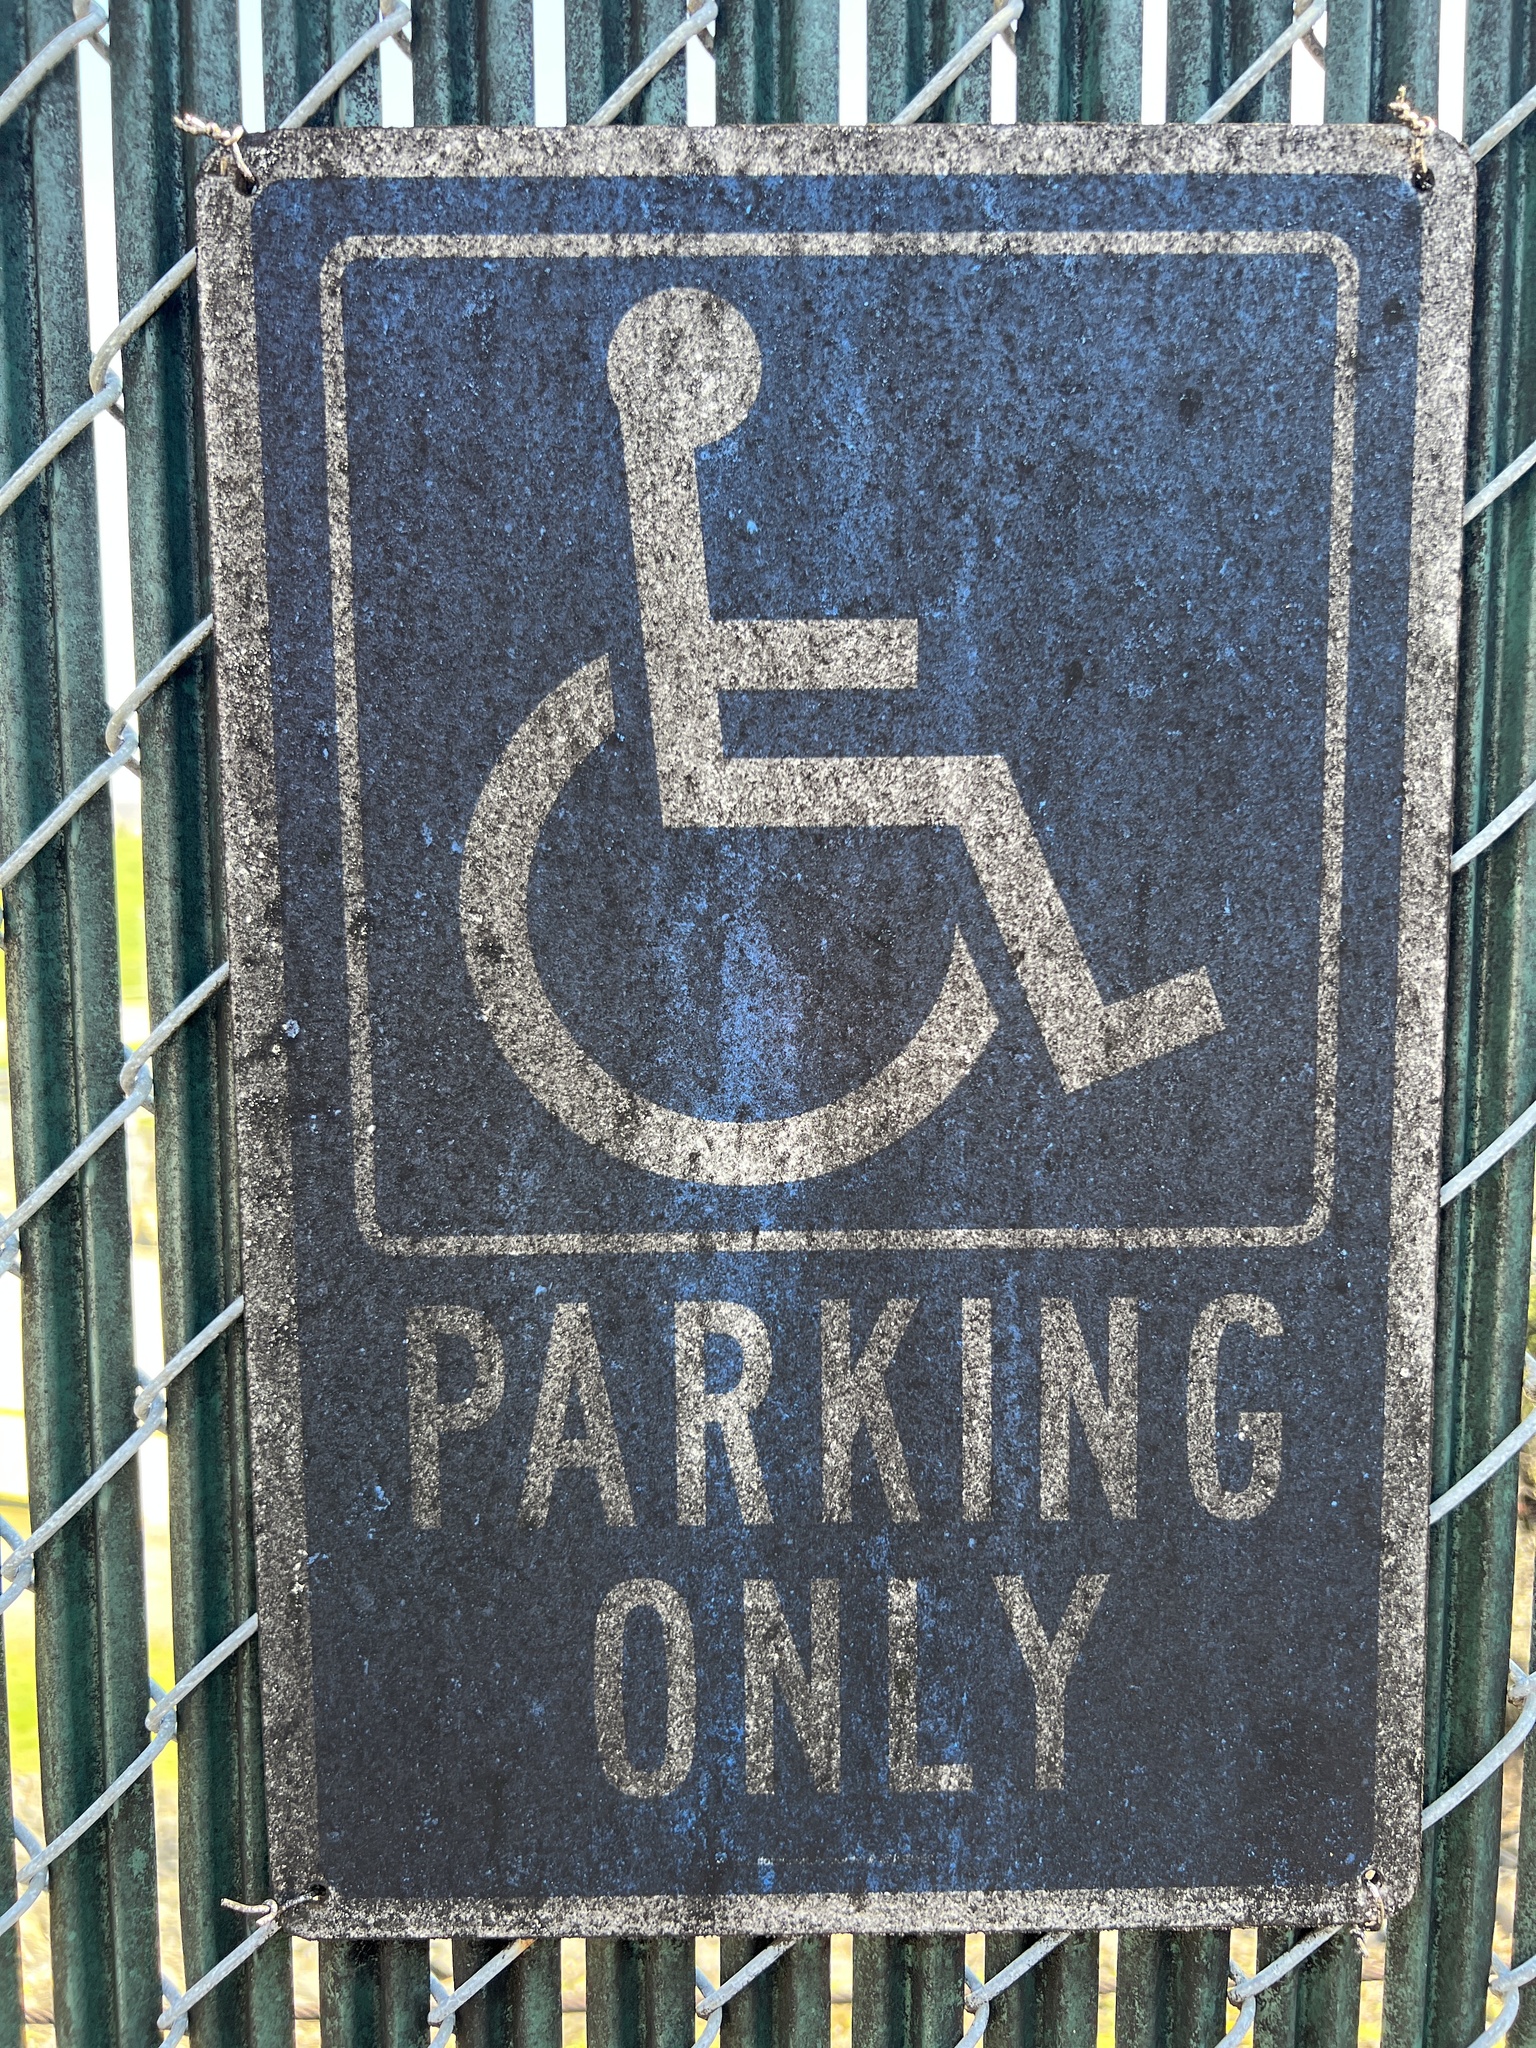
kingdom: Fungi
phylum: Ascomycota
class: Dothideomycetes
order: Capnodiales
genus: Baudoinia
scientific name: Baudoinia compniacensis
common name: Angel's share
